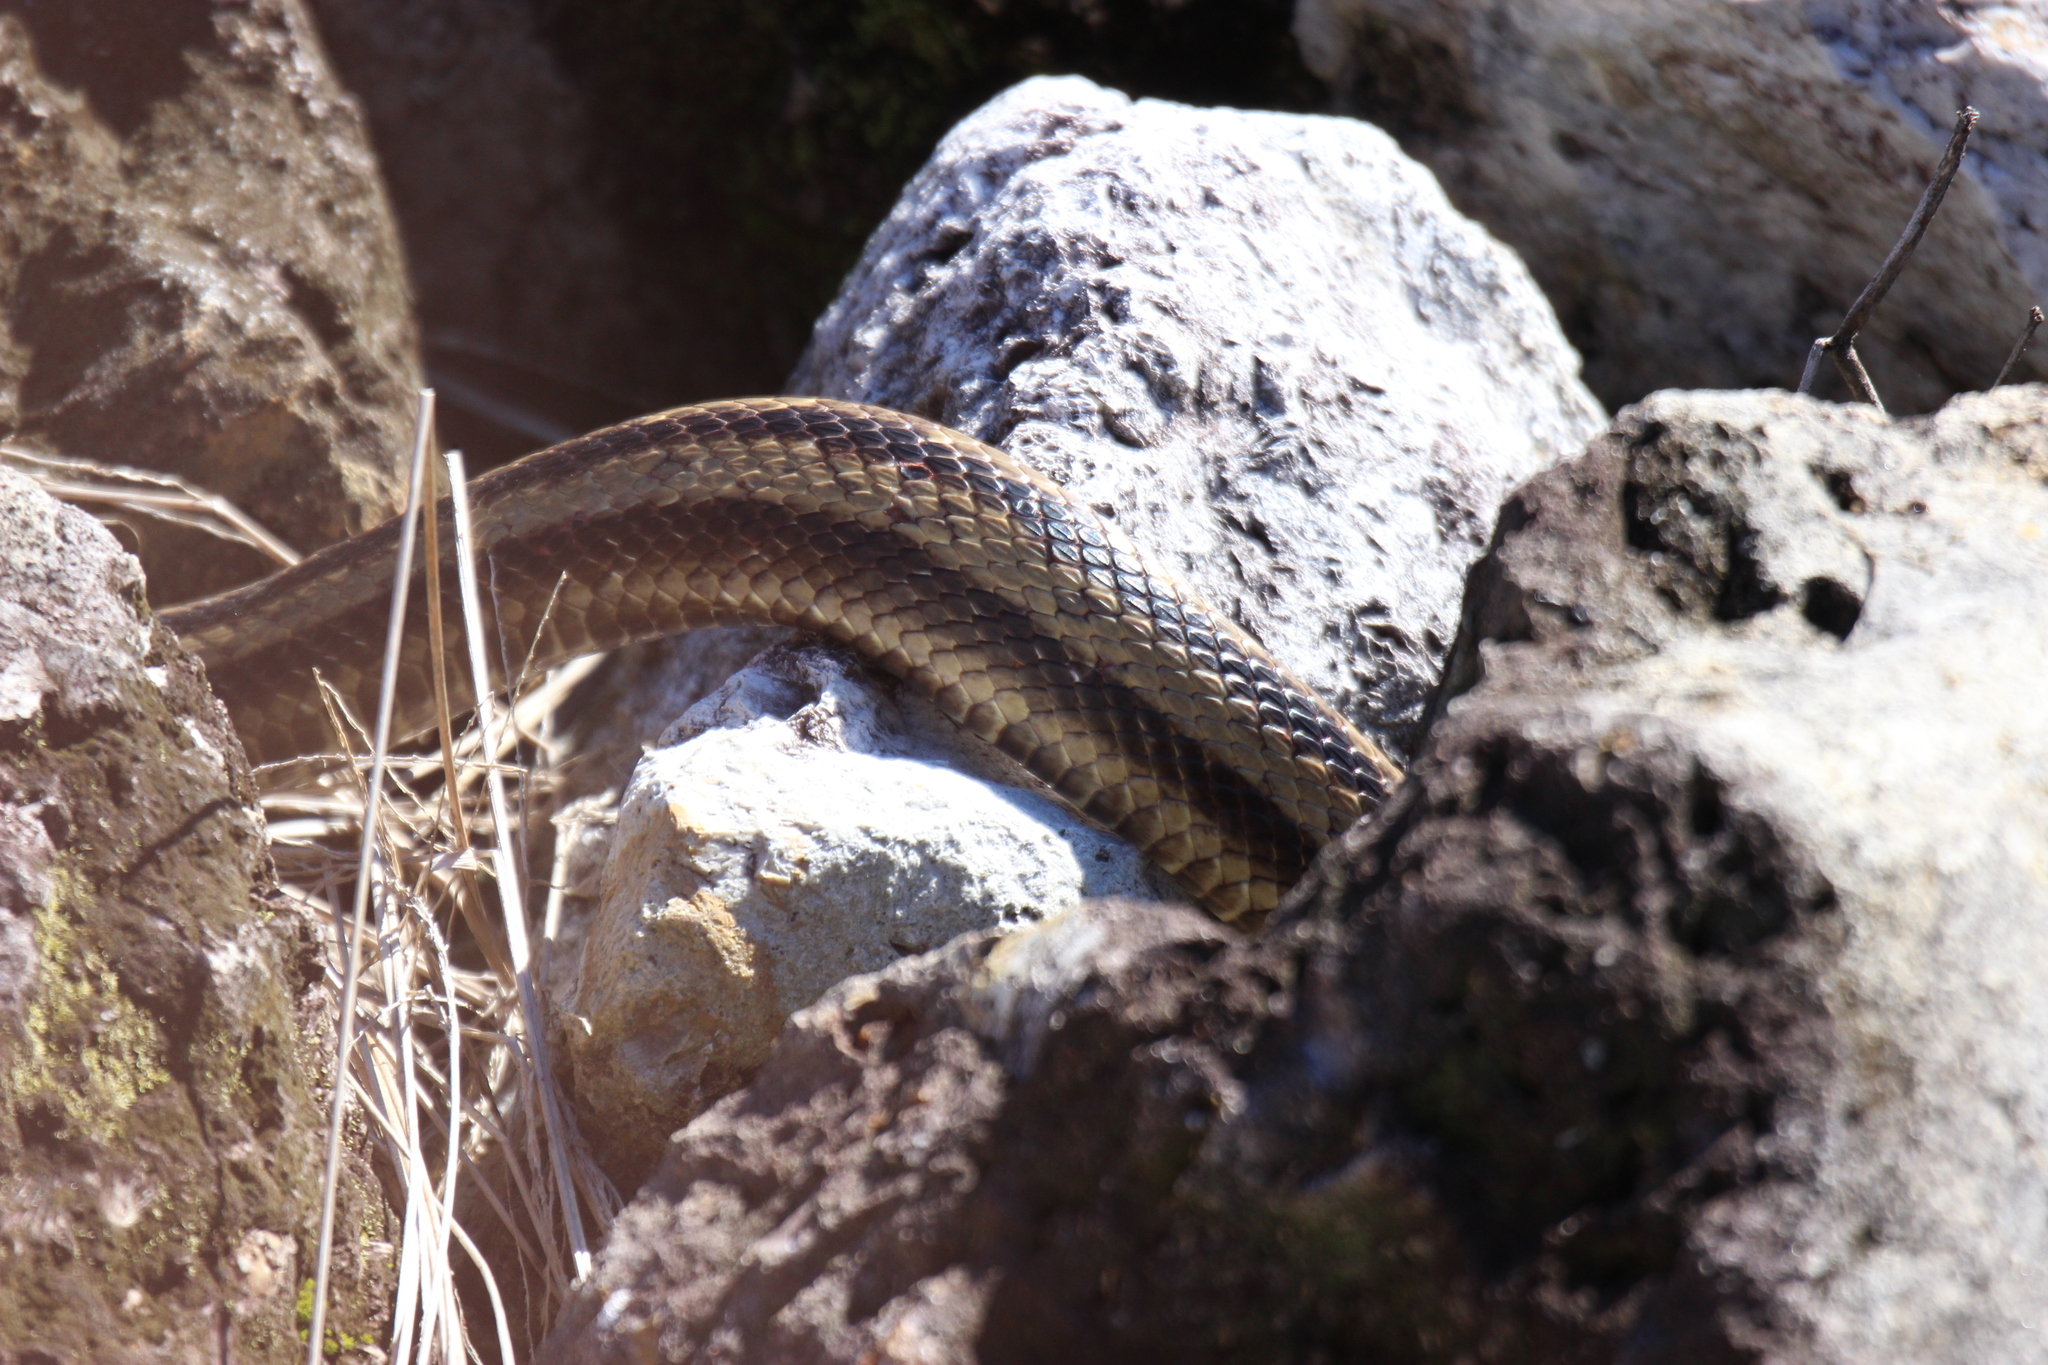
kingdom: Animalia
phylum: Chordata
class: Squamata
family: Colubridae
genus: Pantherophis
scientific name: Pantherophis alleghaniensis
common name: Eastern rat snake
